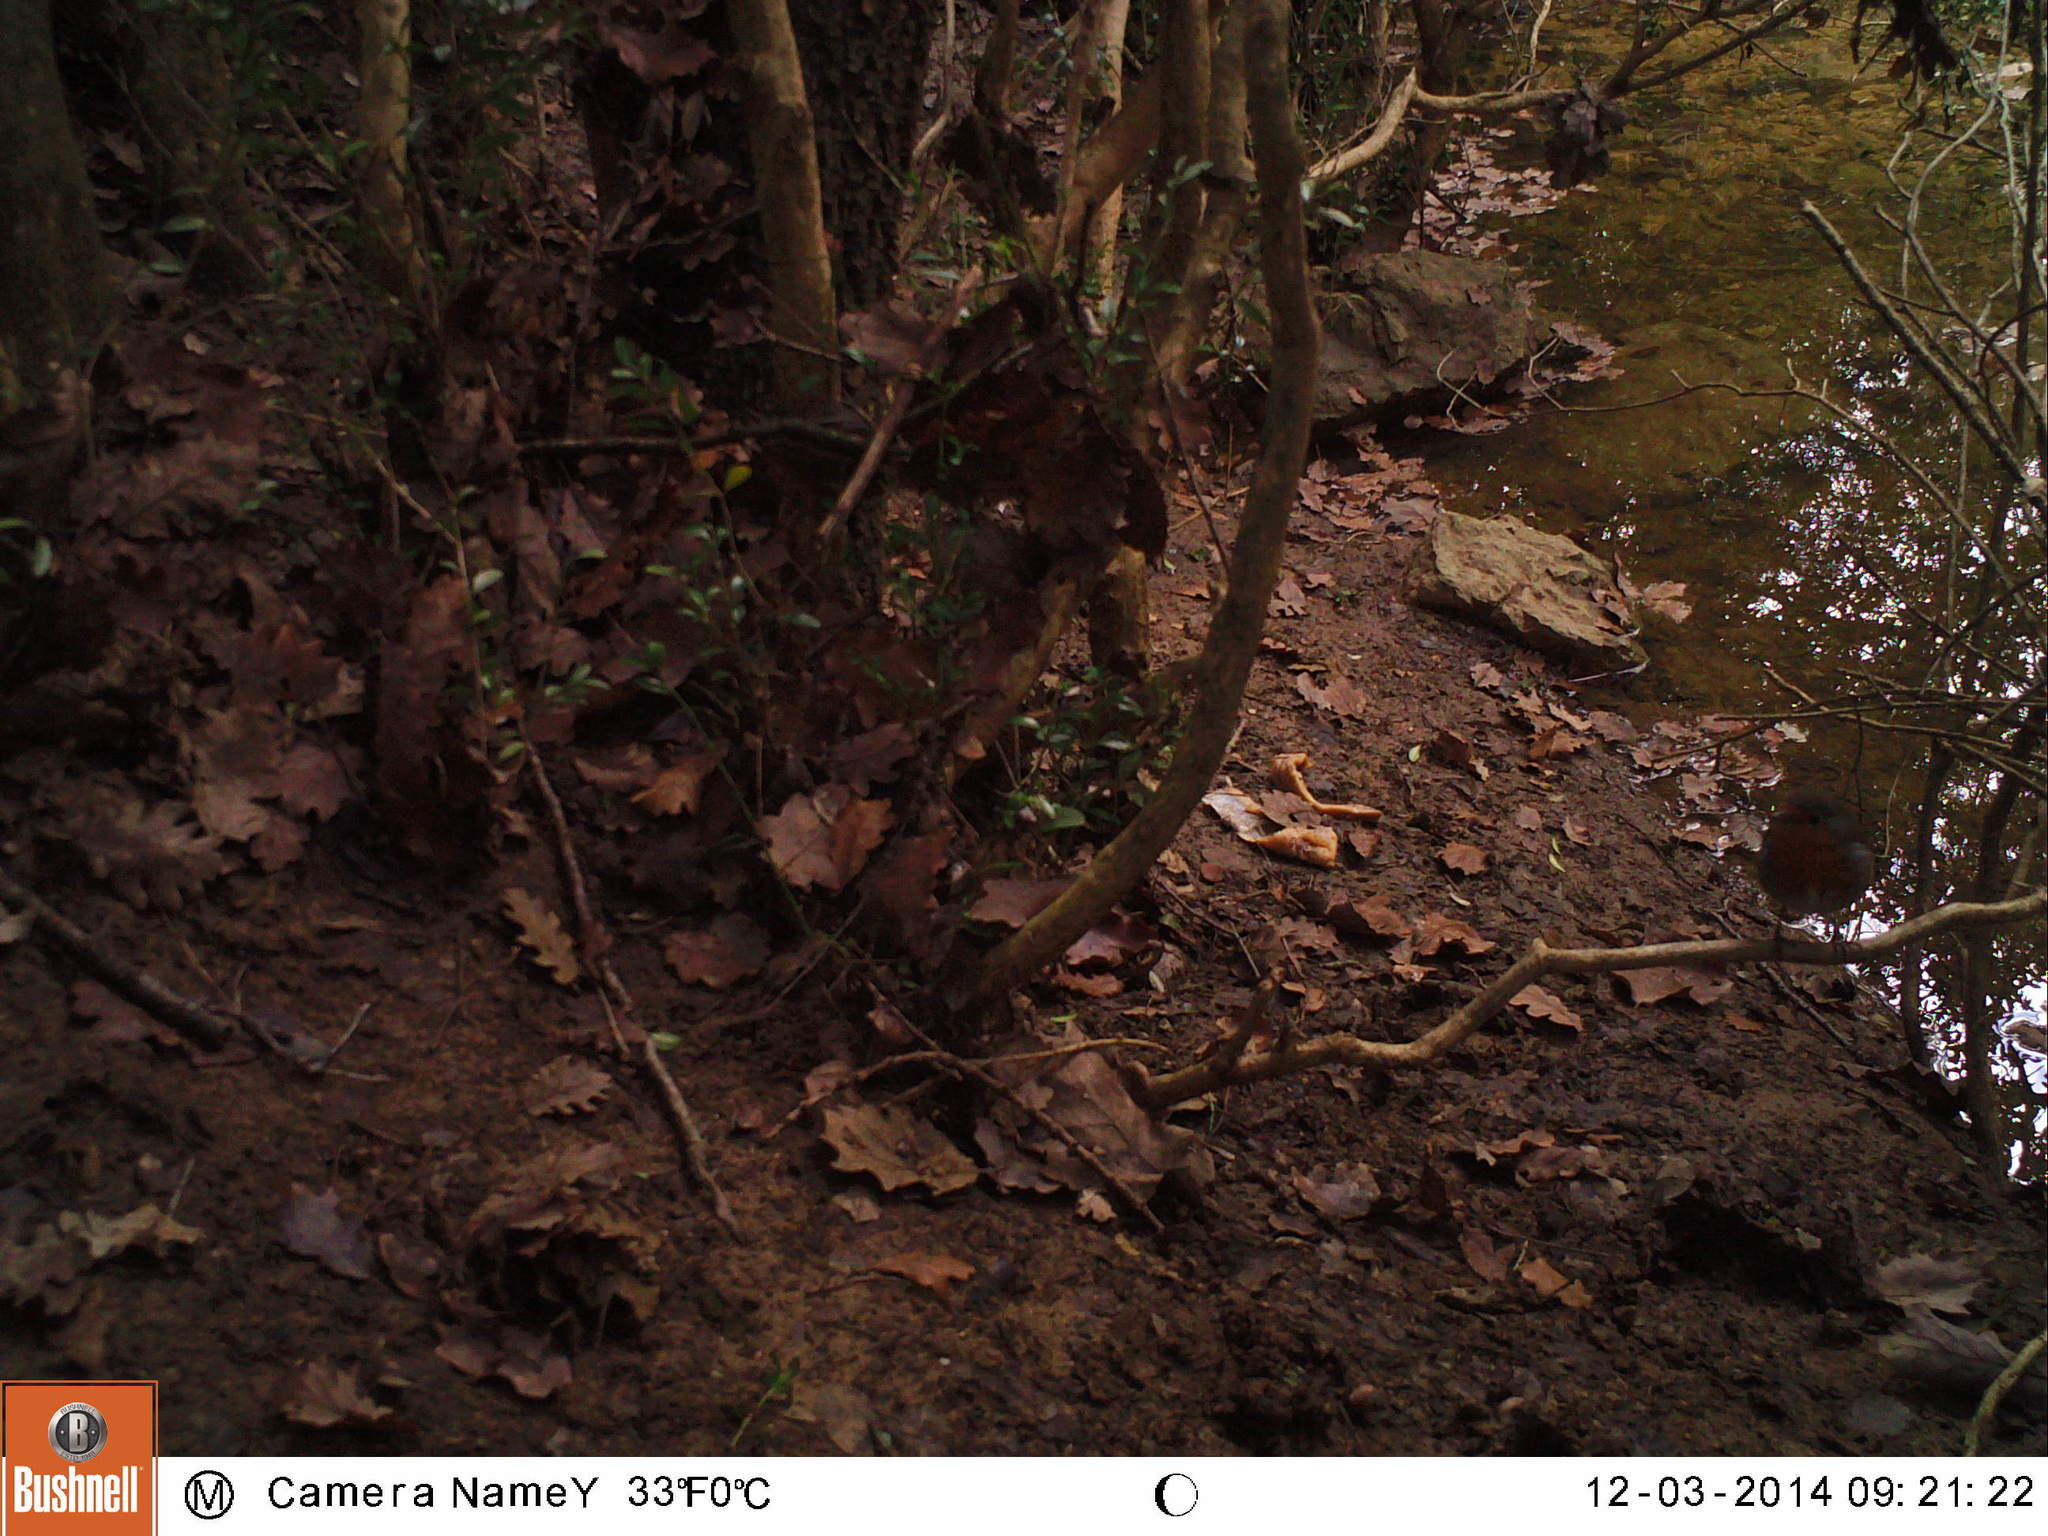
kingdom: Animalia
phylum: Chordata
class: Aves
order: Passeriformes
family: Muscicapidae
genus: Erithacus
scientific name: Erithacus rubecula
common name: European robin
